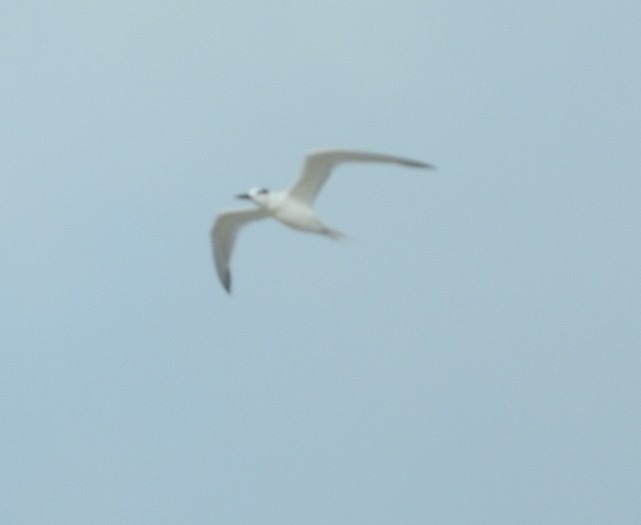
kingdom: Animalia
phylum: Chordata
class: Aves
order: Charadriiformes
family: Laridae
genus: Thalasseus
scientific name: Thalasseus sandvicensis
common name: Sandwich tern
